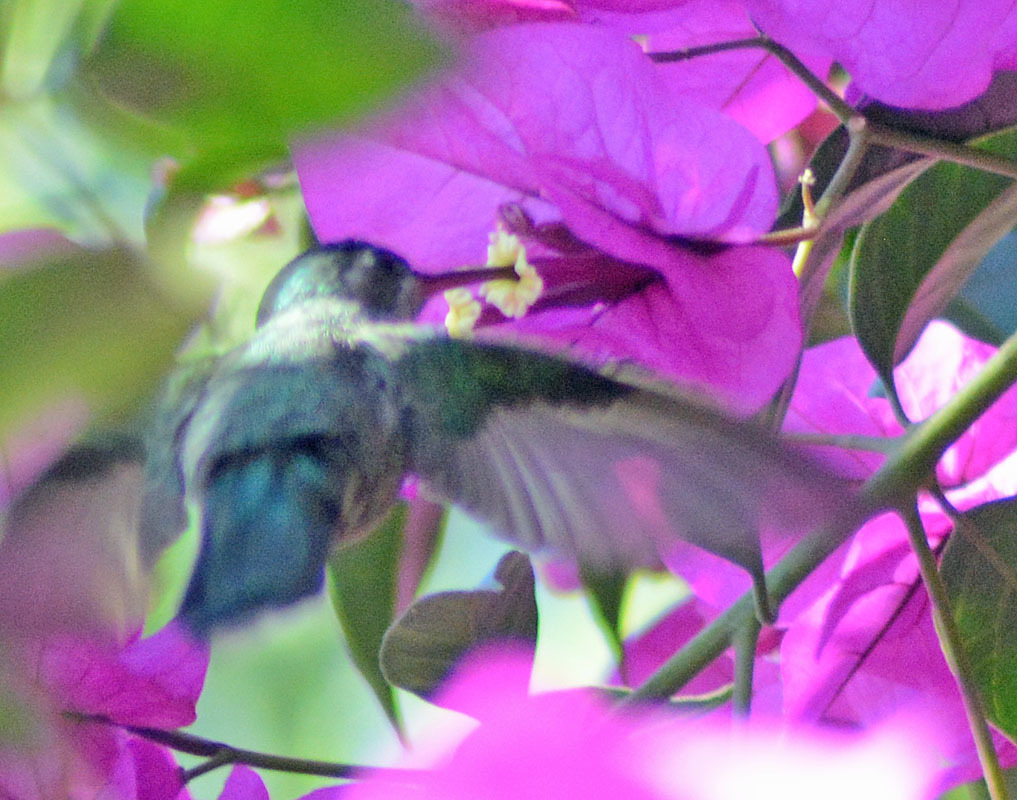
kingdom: Animalia
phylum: Chordata
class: Aves
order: Apodiformes
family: Trochilidae
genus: Cynanthus
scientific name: Cynanthus latirostris
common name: Broad-billed hummingbird
